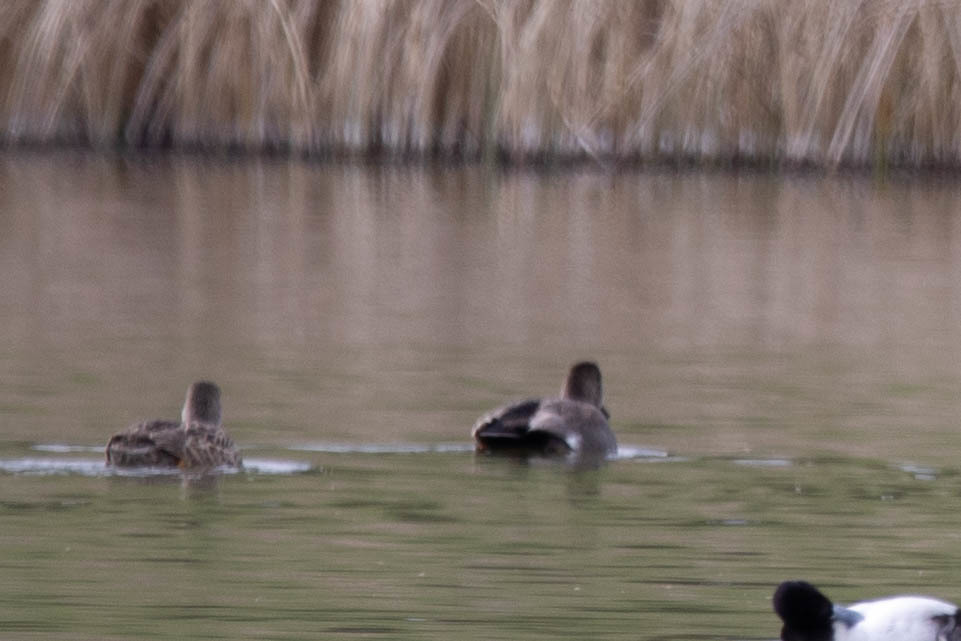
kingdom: Animalia
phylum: Chordata
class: Aves
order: Anseriformes
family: Anatidae
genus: Mareca
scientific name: Mareca strepera
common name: Gadwall
